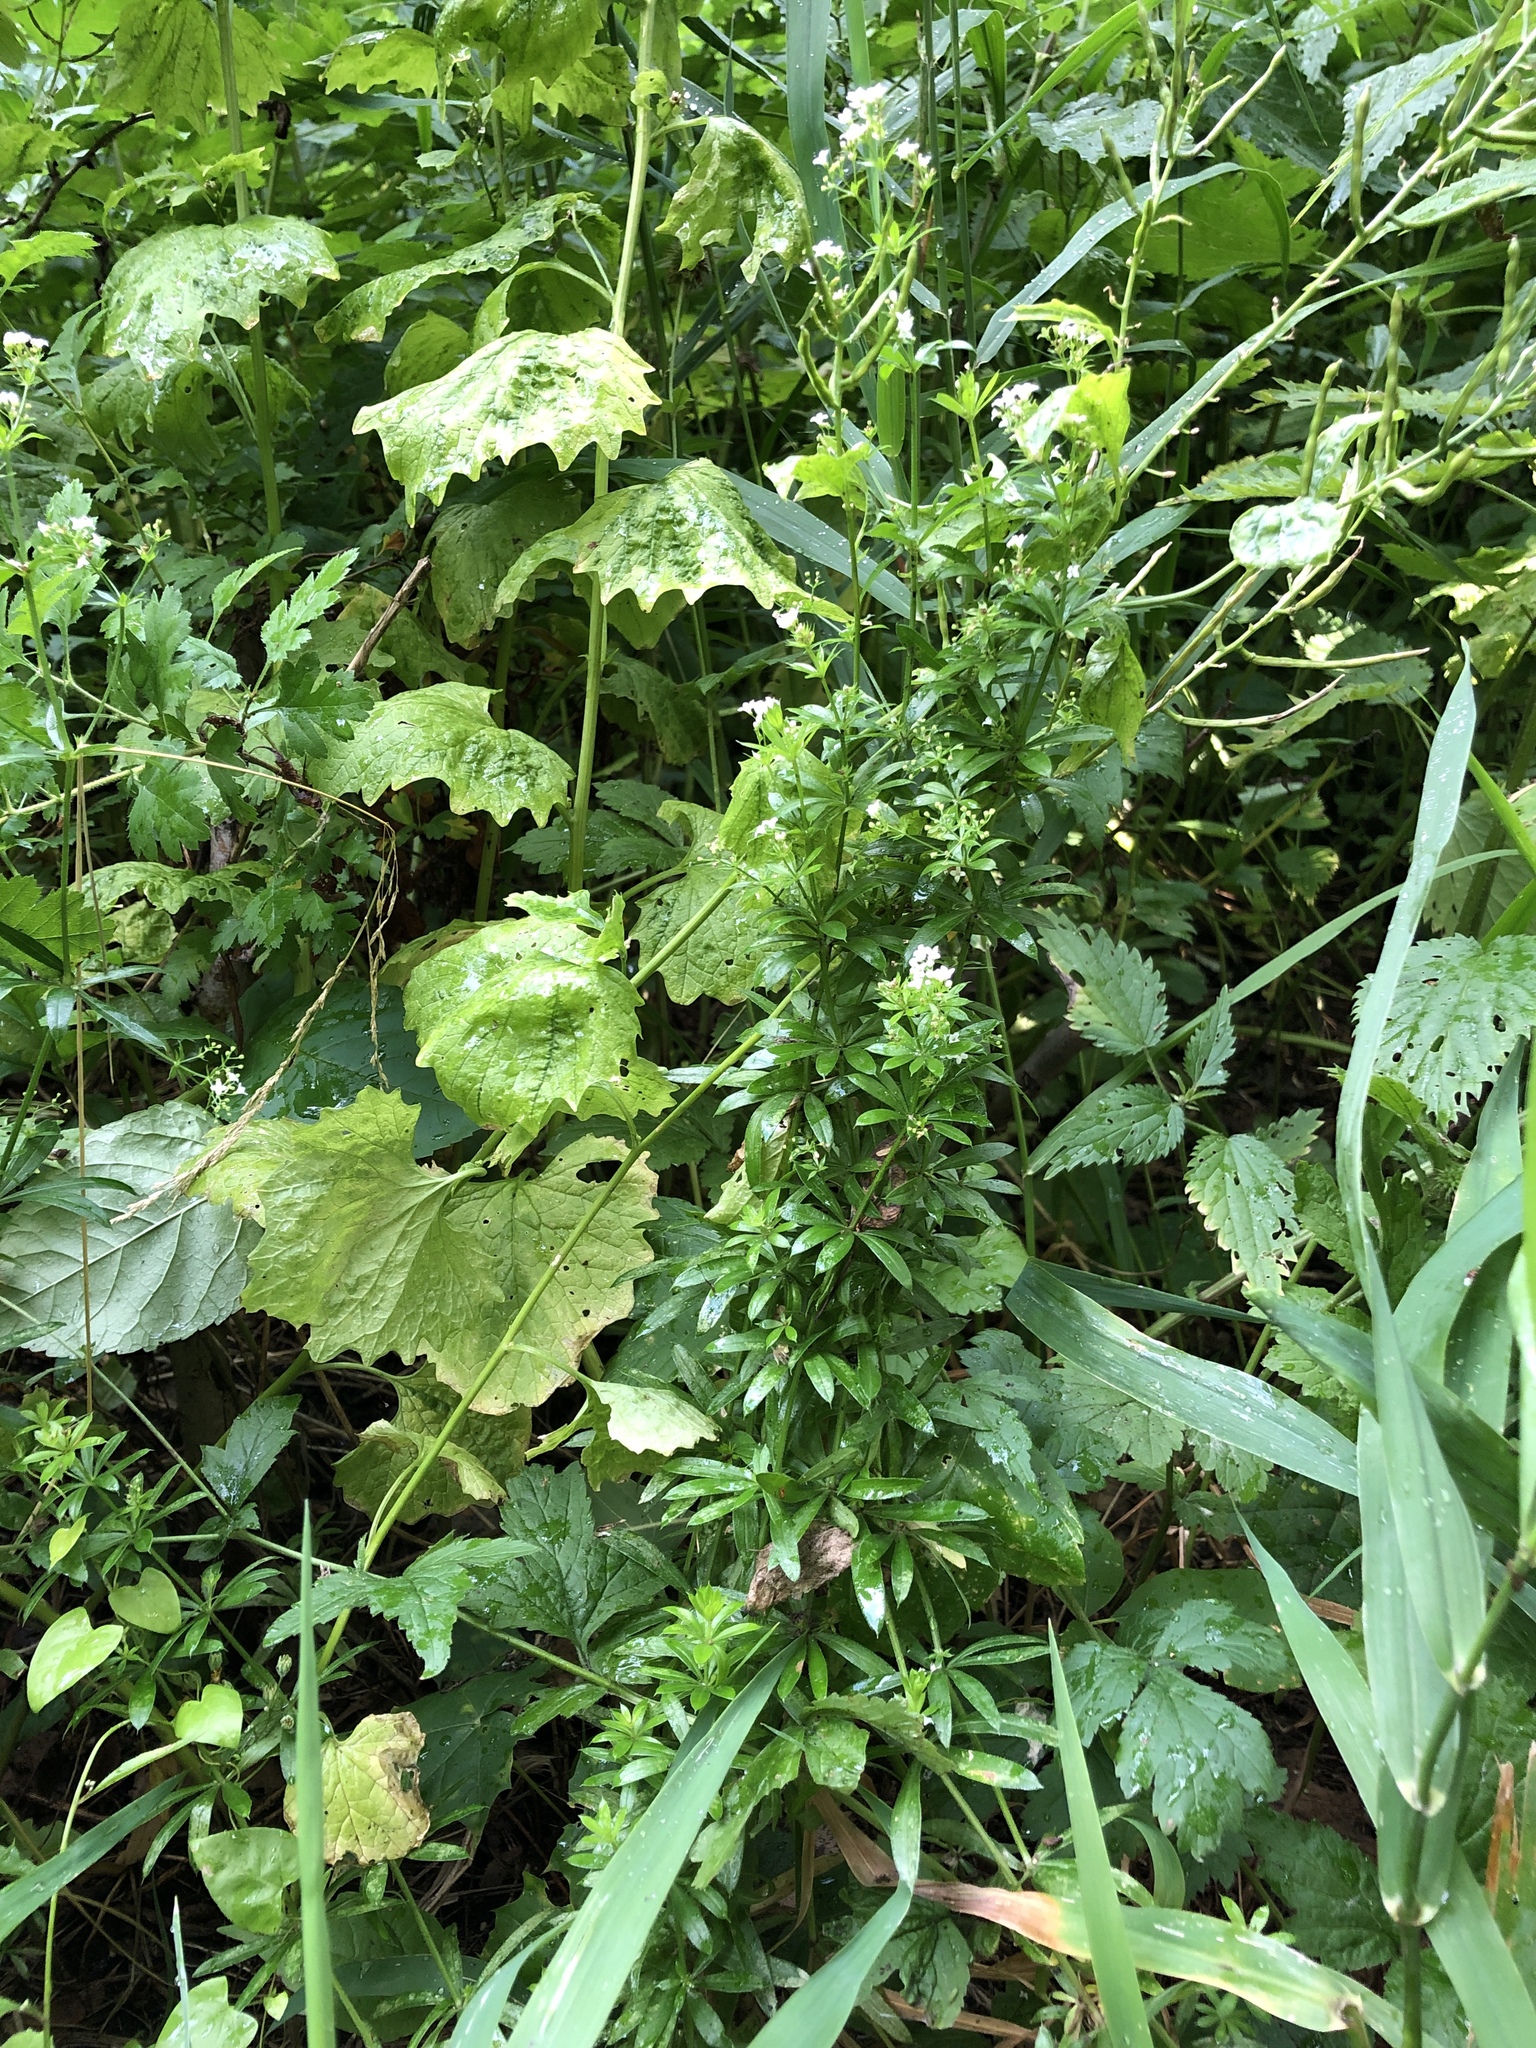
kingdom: Plantae
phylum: Tracheophyta
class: Magnoliopsida
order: Gentianales
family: Rubiaceae
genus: Galium
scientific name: Galium rivale
